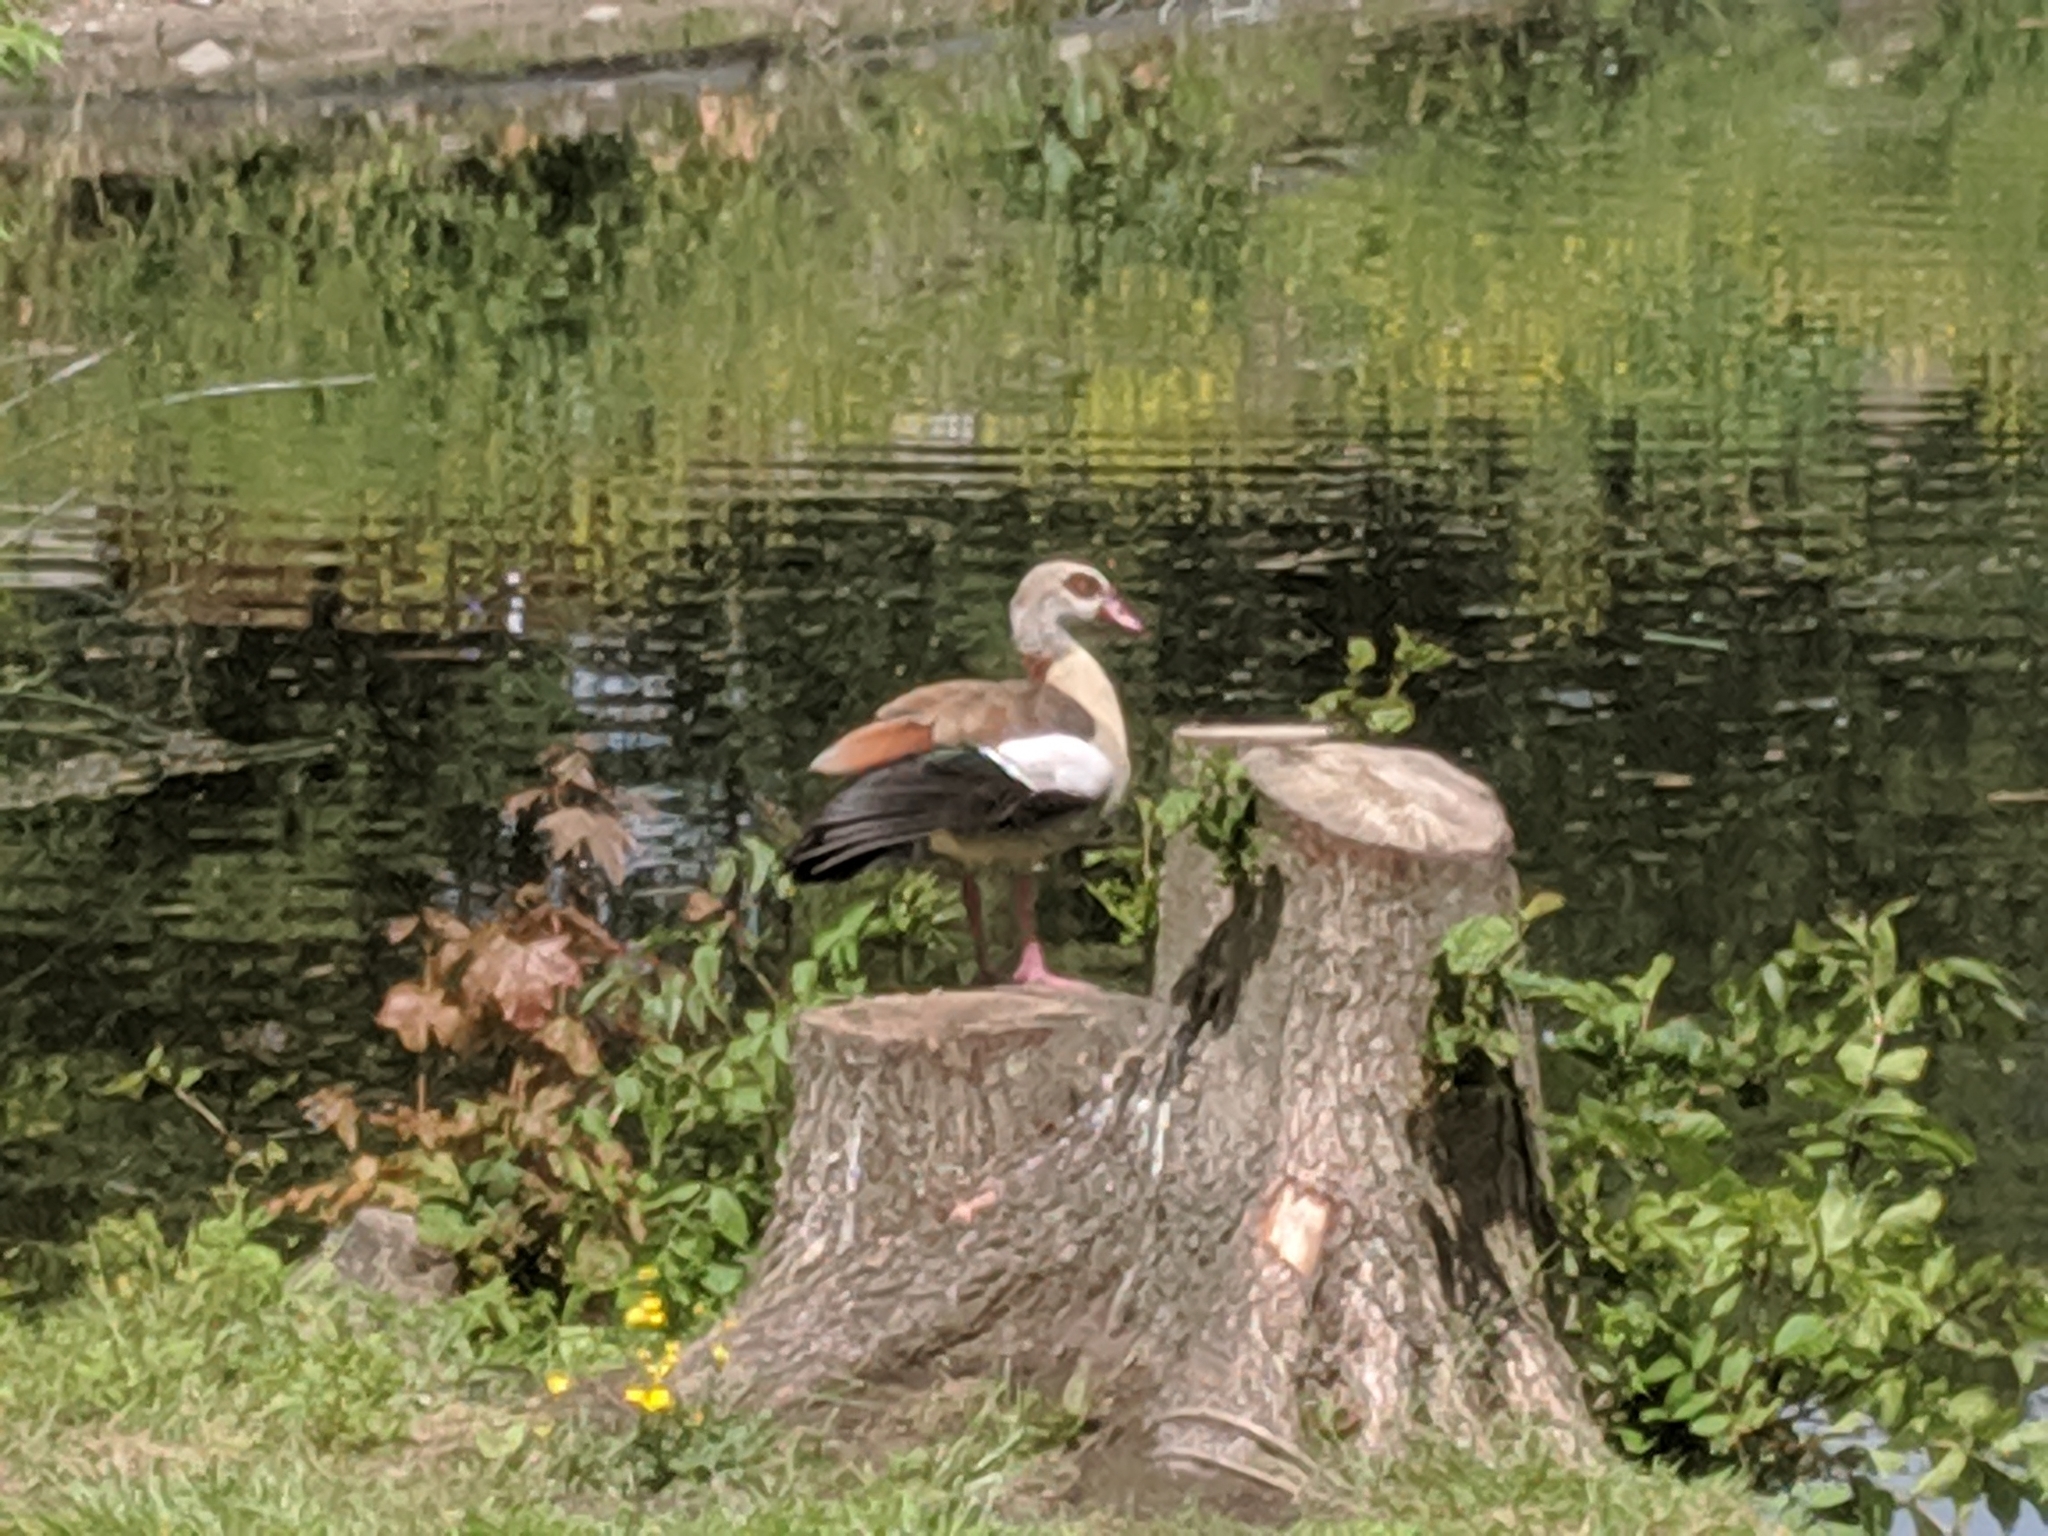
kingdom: Animalia
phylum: Chordata
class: Aves
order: Anseriformes
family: Anatidae
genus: Alopochen
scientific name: Alopochen aegyptiaca
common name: Egyptian goose
